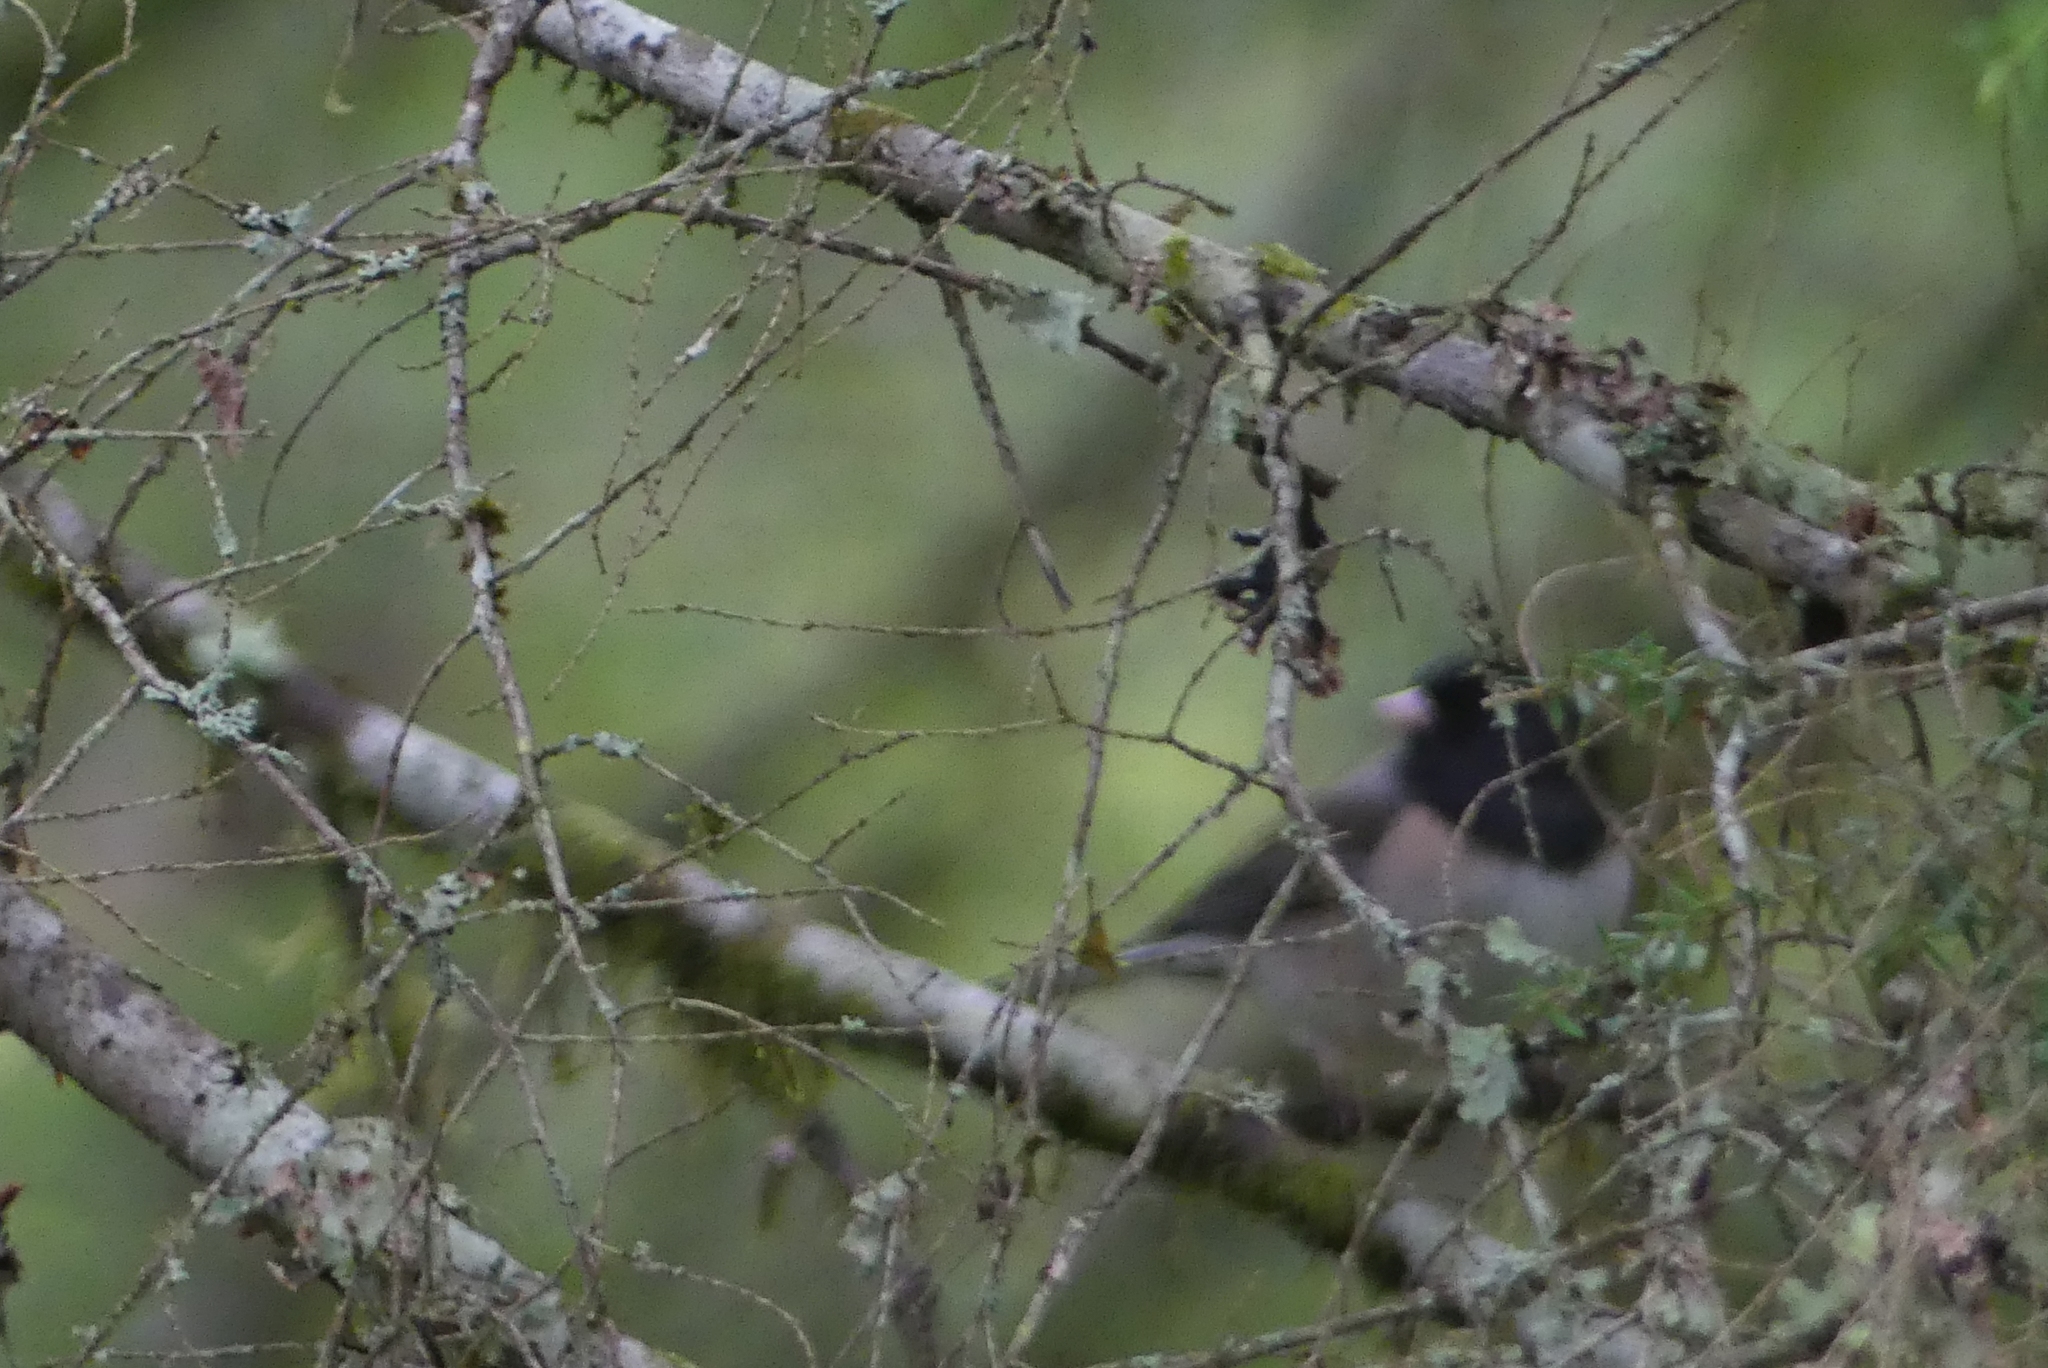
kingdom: Animalia
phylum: Chordata
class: Aves
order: Passeriformes
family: Passerellidae
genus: Junco
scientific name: Junco hyemalis
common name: Dark-eyed junco
